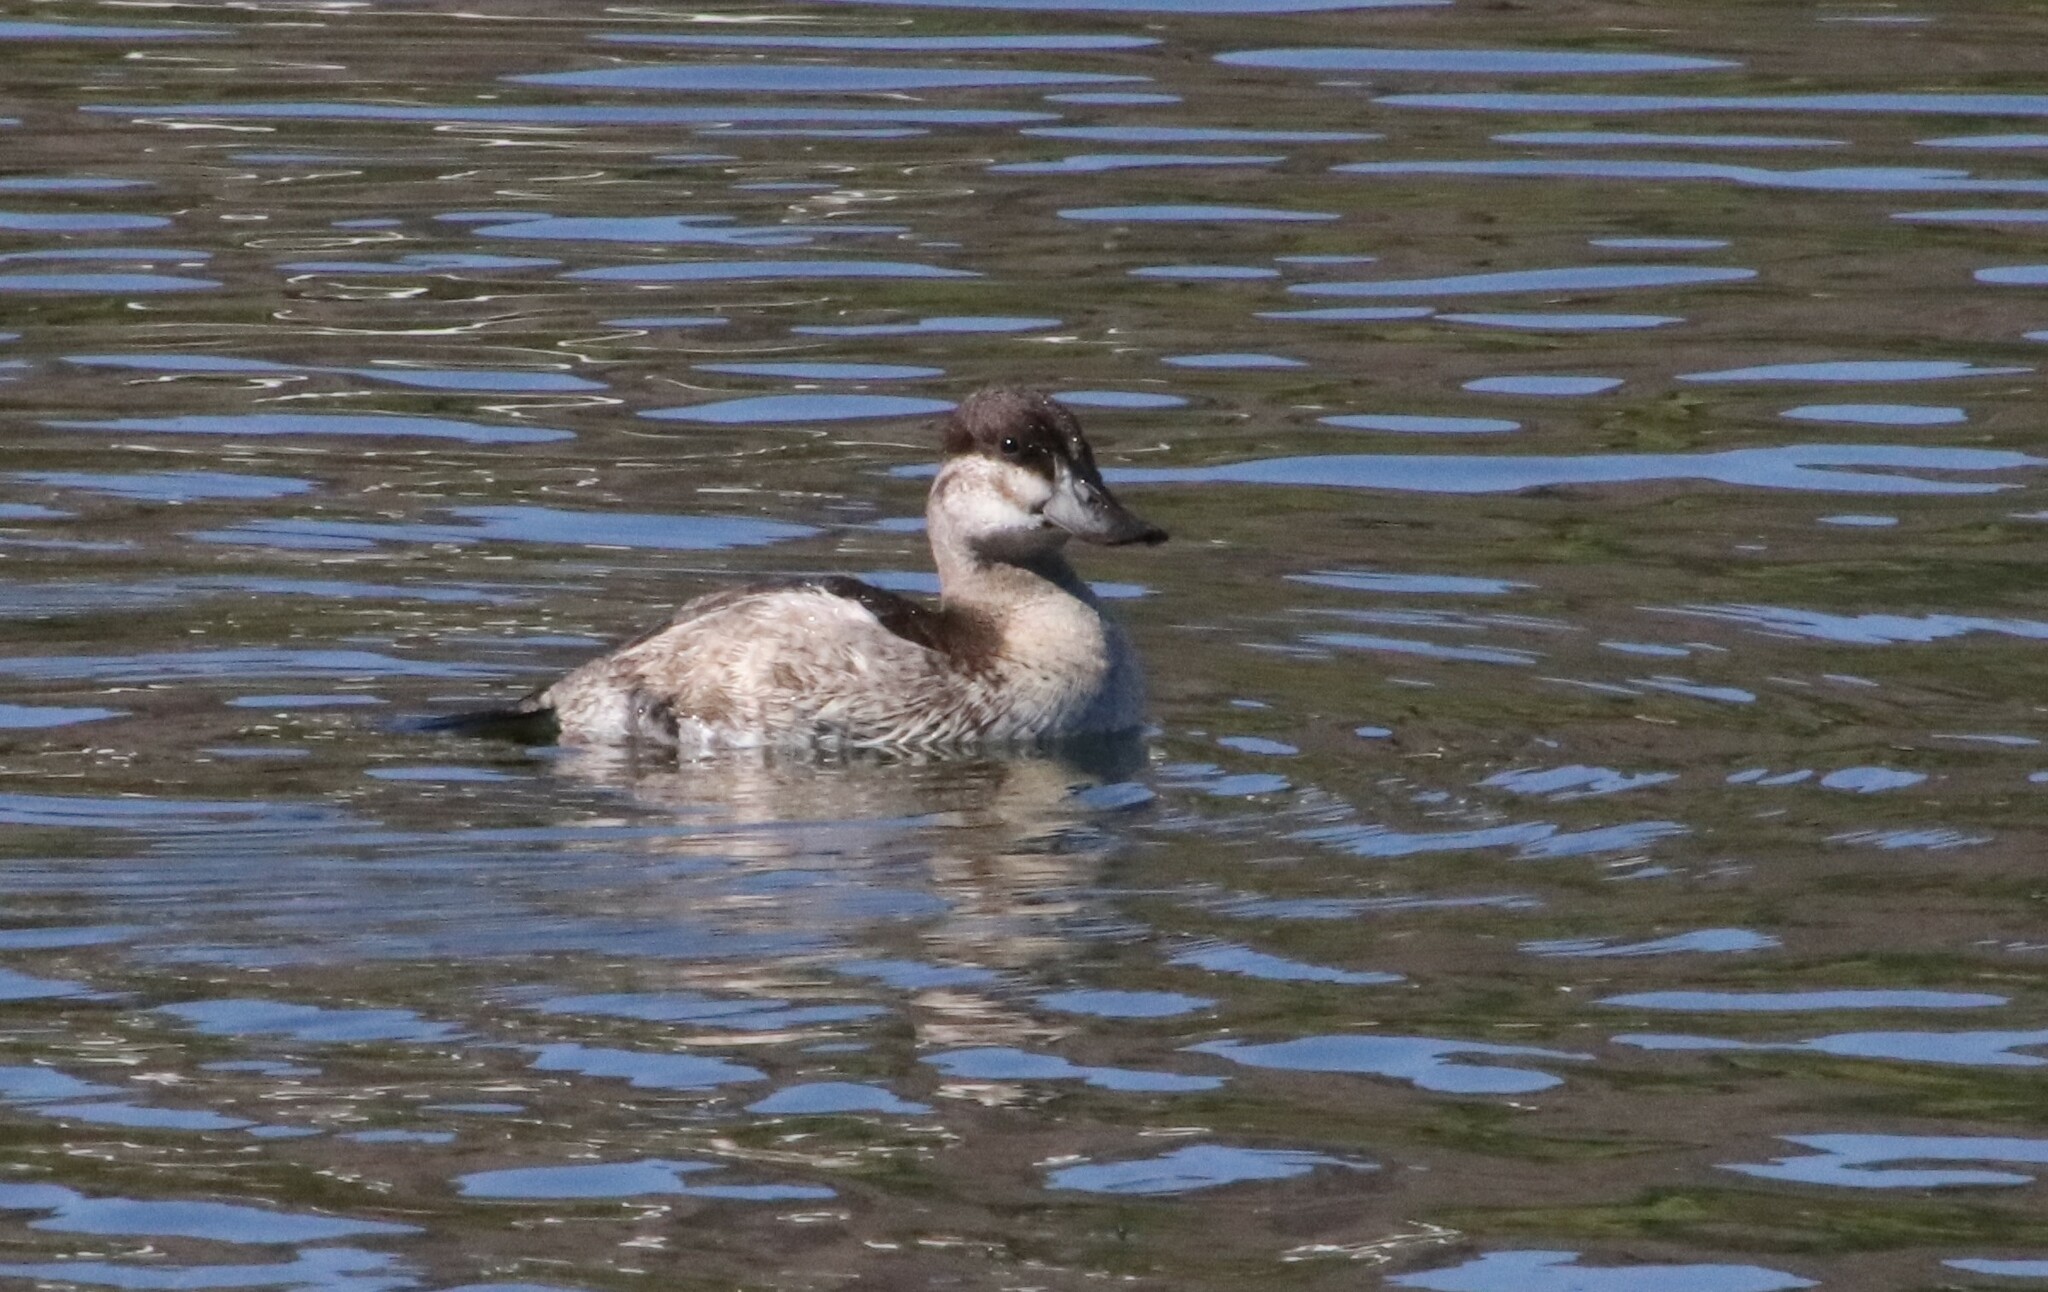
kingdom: Animalia
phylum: Chordata
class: Aves
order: Anseriformes
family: Anatidae
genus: Oxyura
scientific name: Oxyura jamaicensis
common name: Ruddy duck
